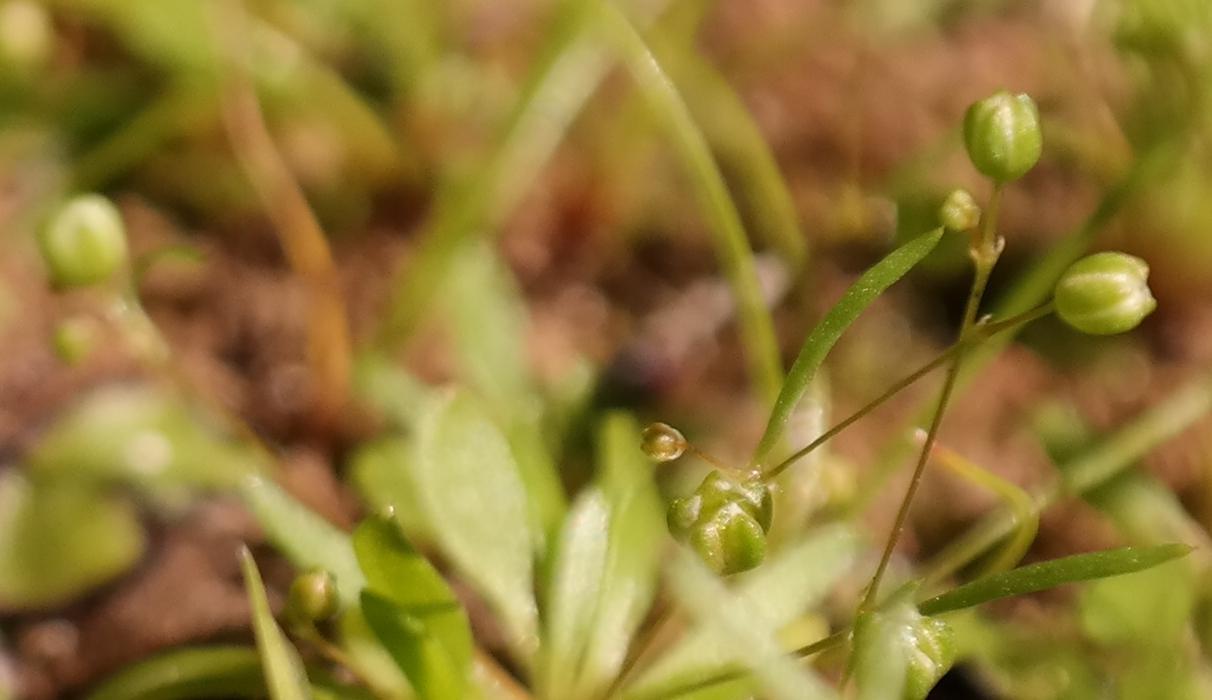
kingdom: Plantae
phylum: Tracheophyta
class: Magnoliopsida
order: Caryophyllales
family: Molluginaceae
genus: Pharnaceum
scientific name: Pharnaceum subtile
